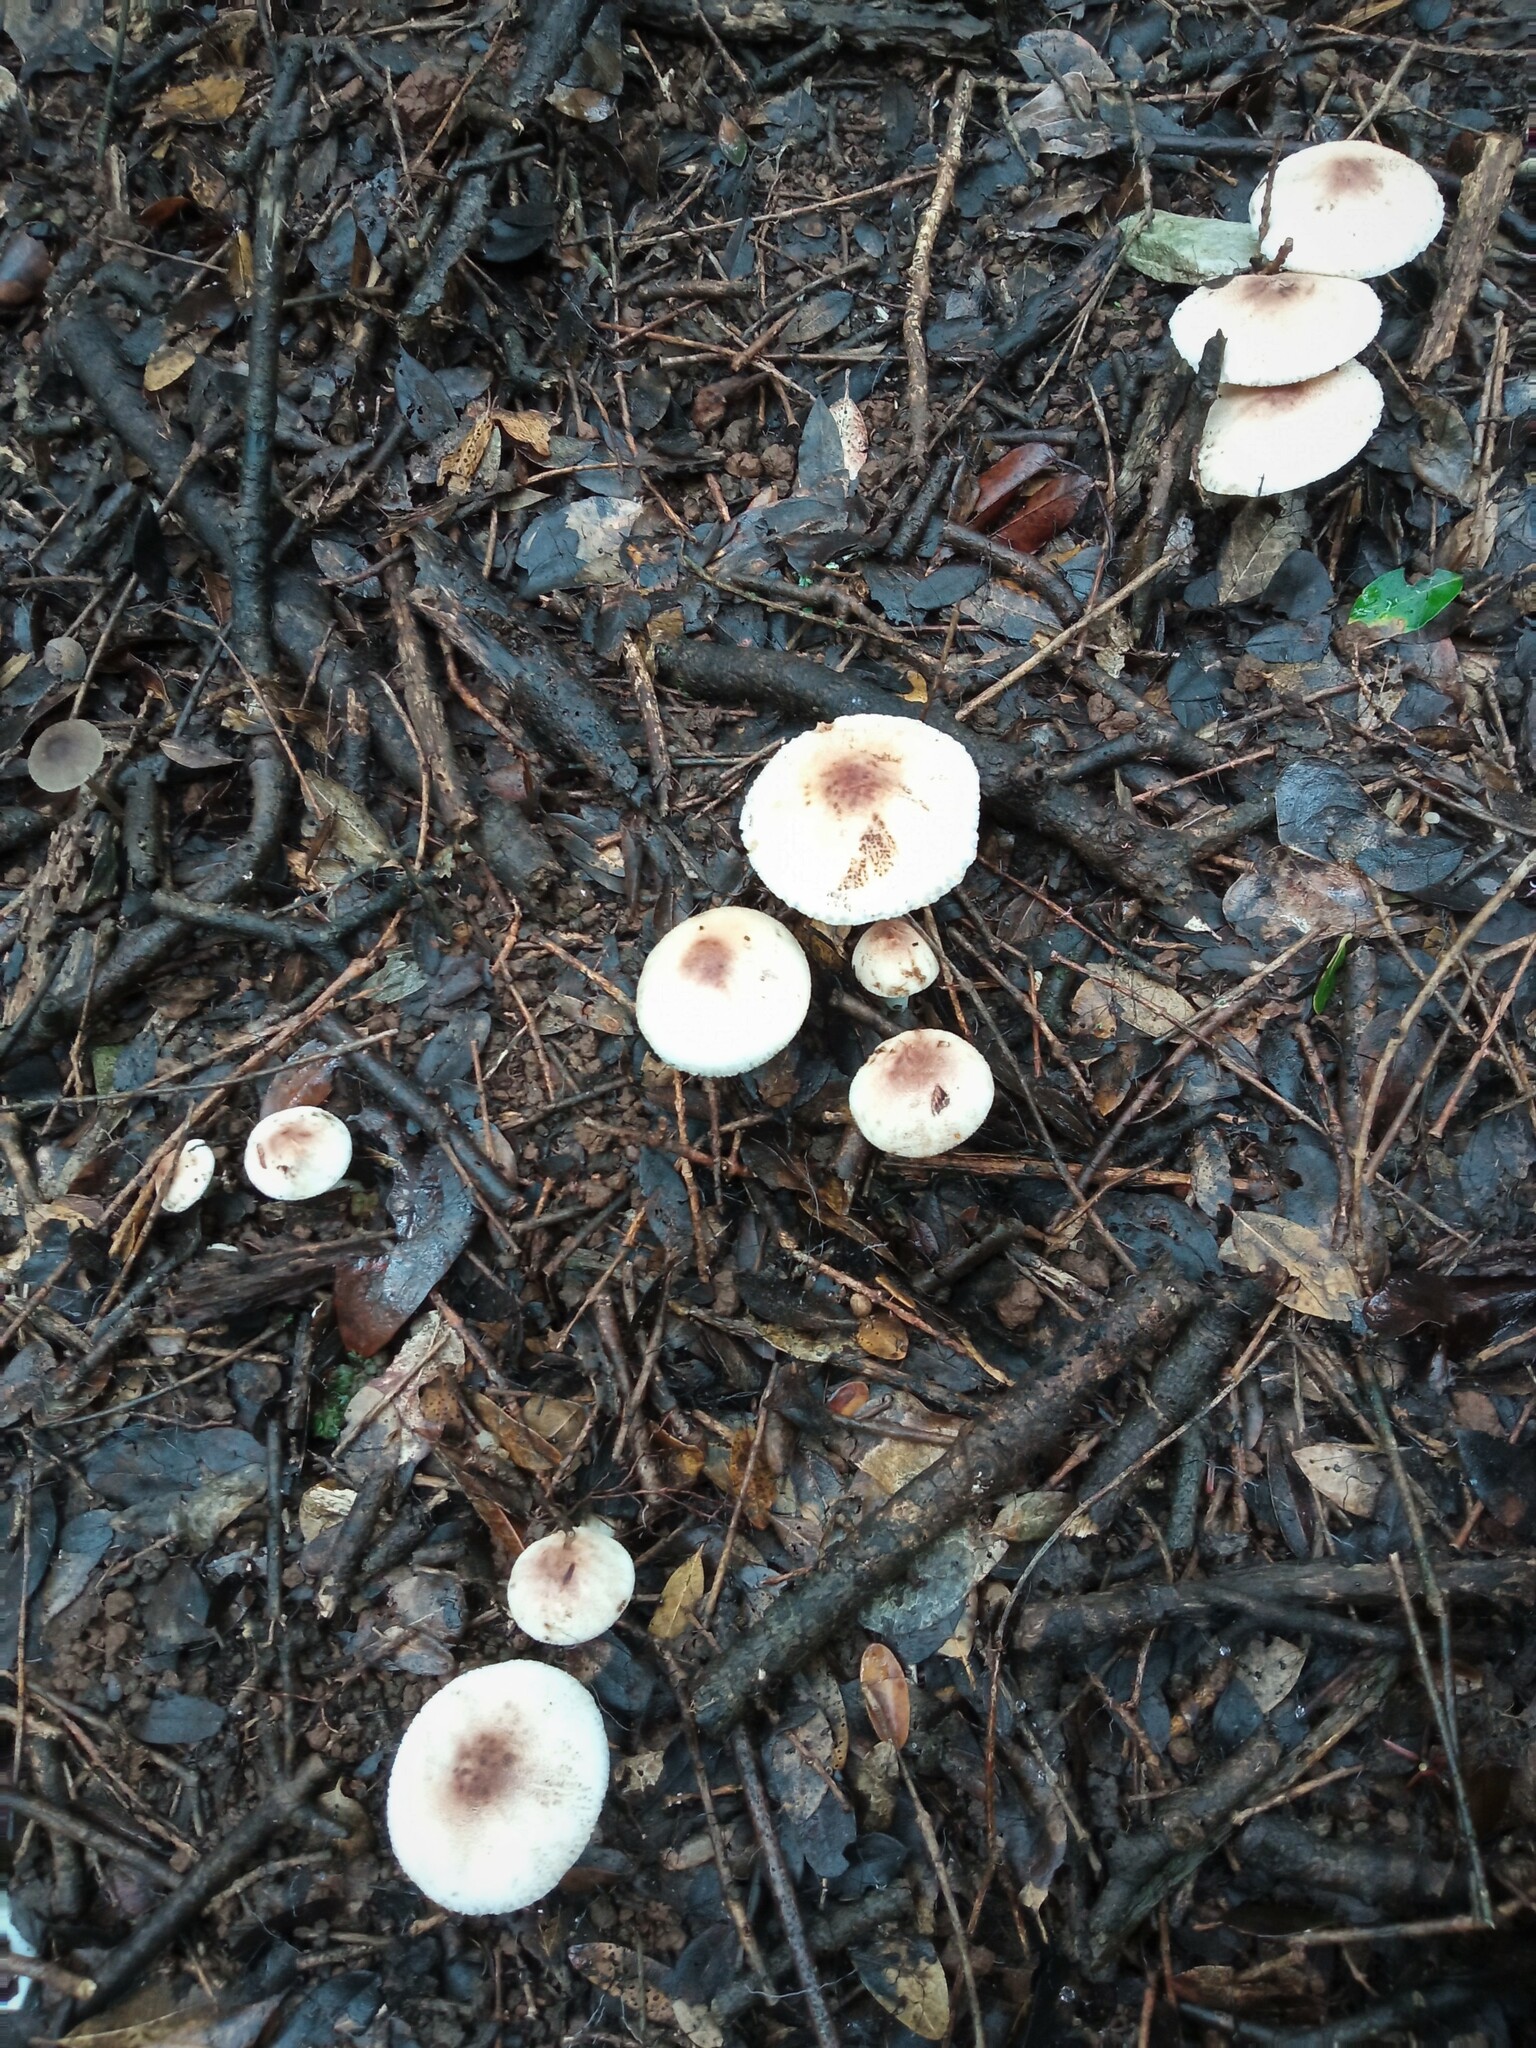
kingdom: Fungi
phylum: Basidiomycota
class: Agaricomycetes
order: Agaricales
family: Agaricaceae
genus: Leucoagaricus
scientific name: Leucoagaricus badhamii
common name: Blushing dapperling
